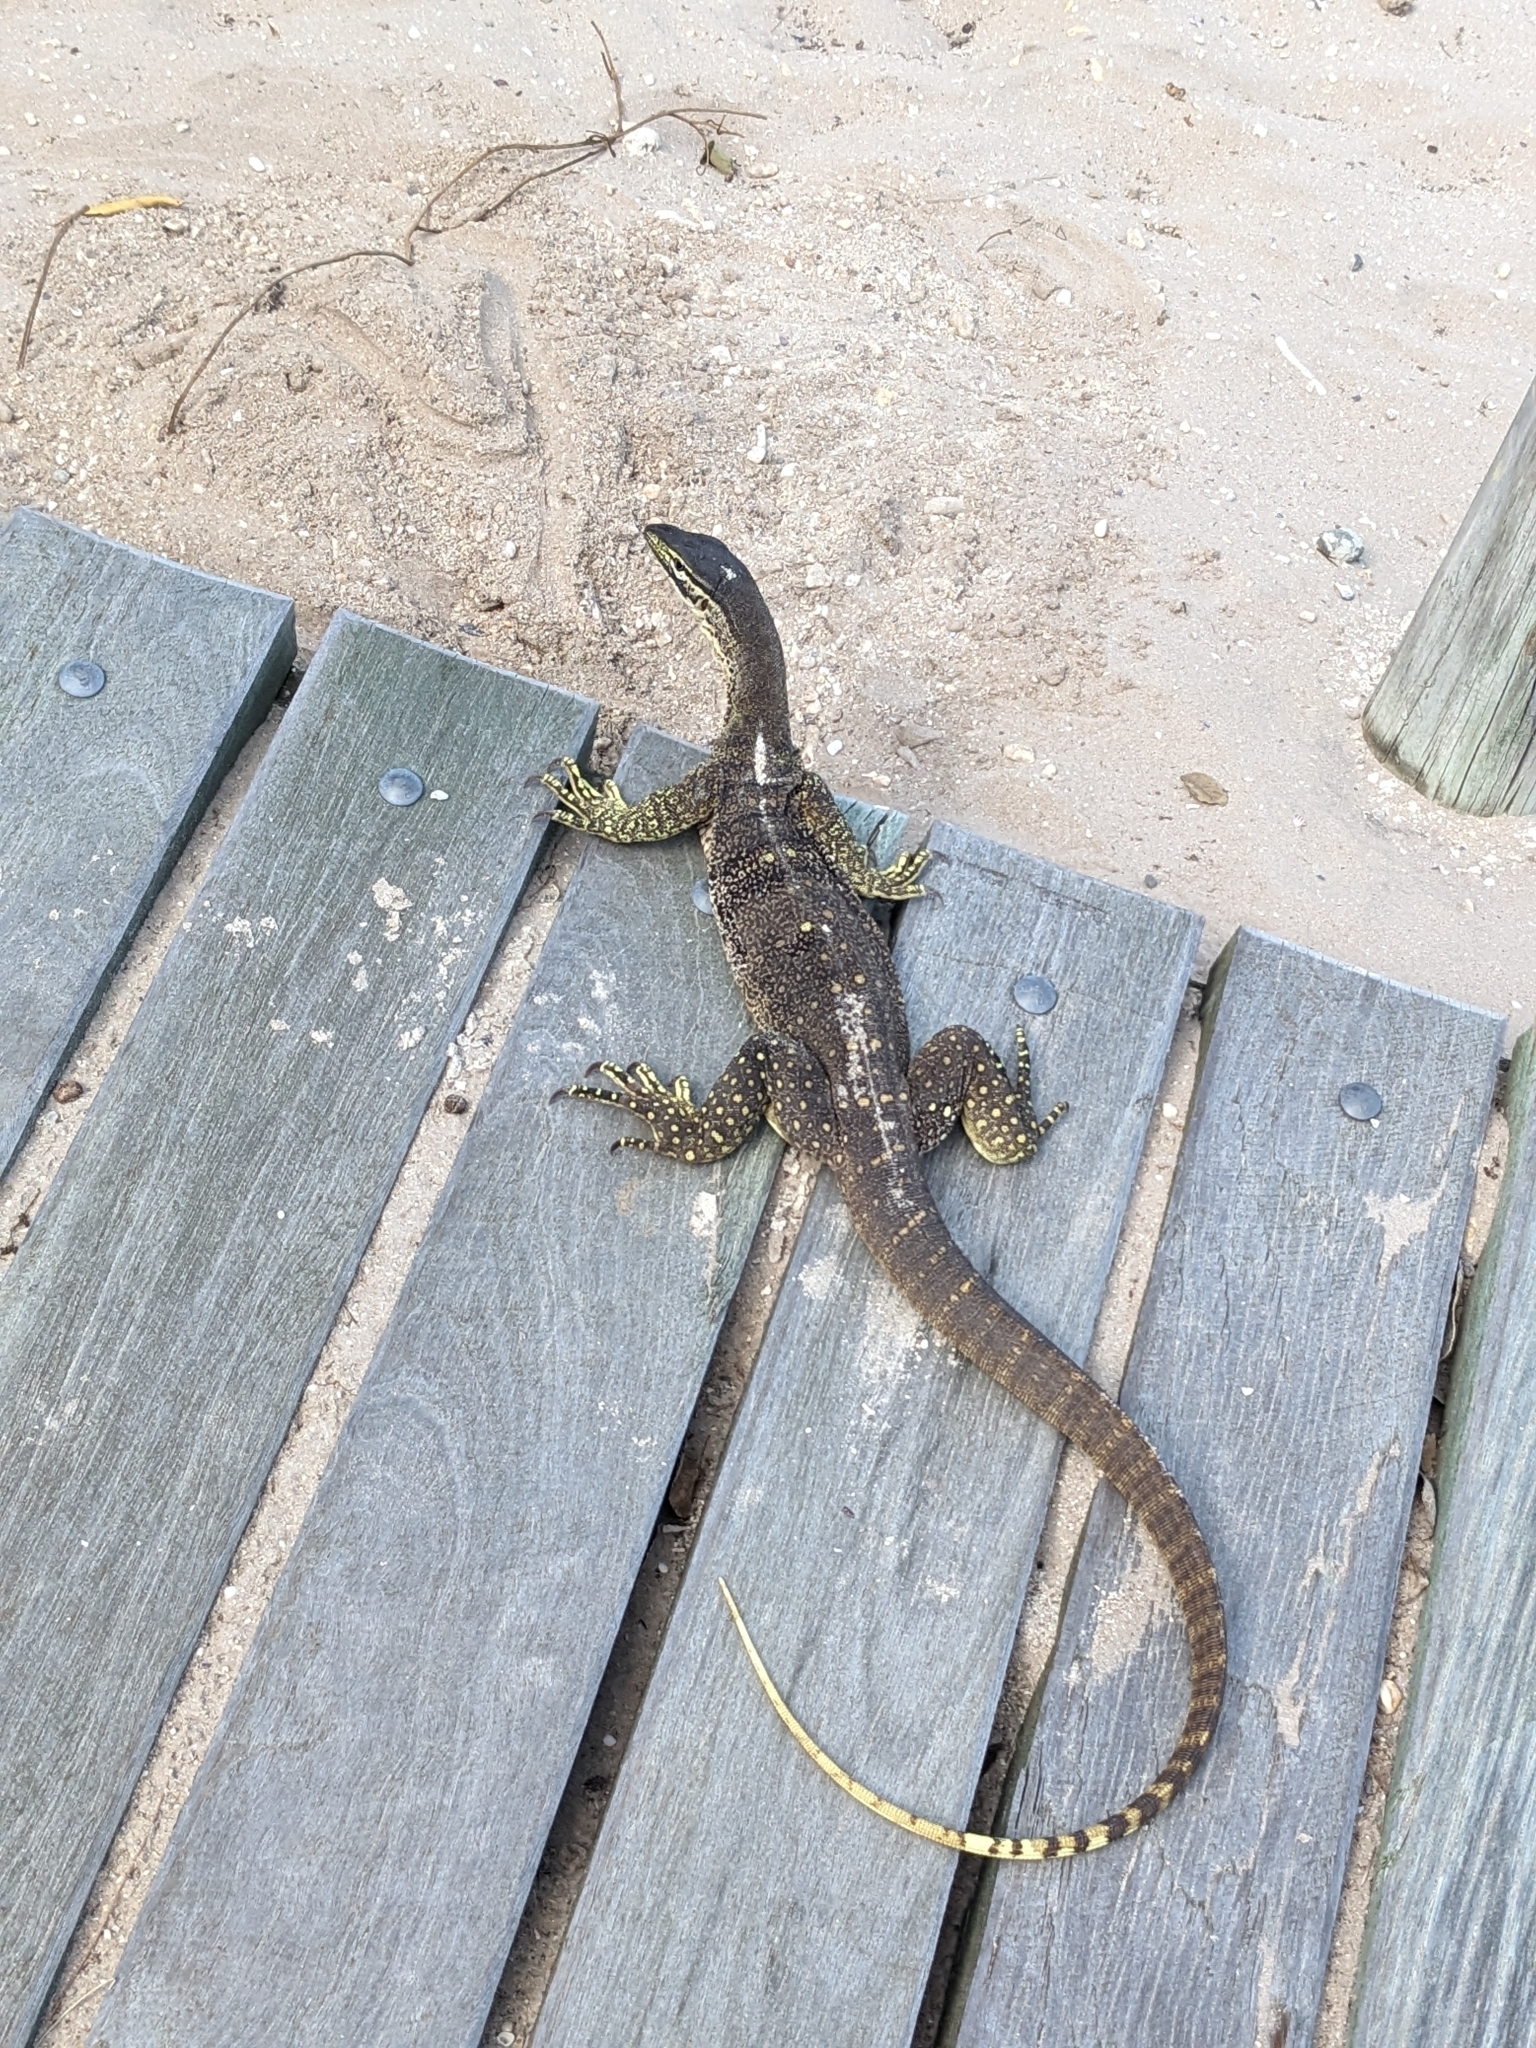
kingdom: Animalia
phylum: Chordata
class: Squamata
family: Varanidae
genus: Varanus
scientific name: Varanus panoptes
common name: Yellow-spotted monitor
